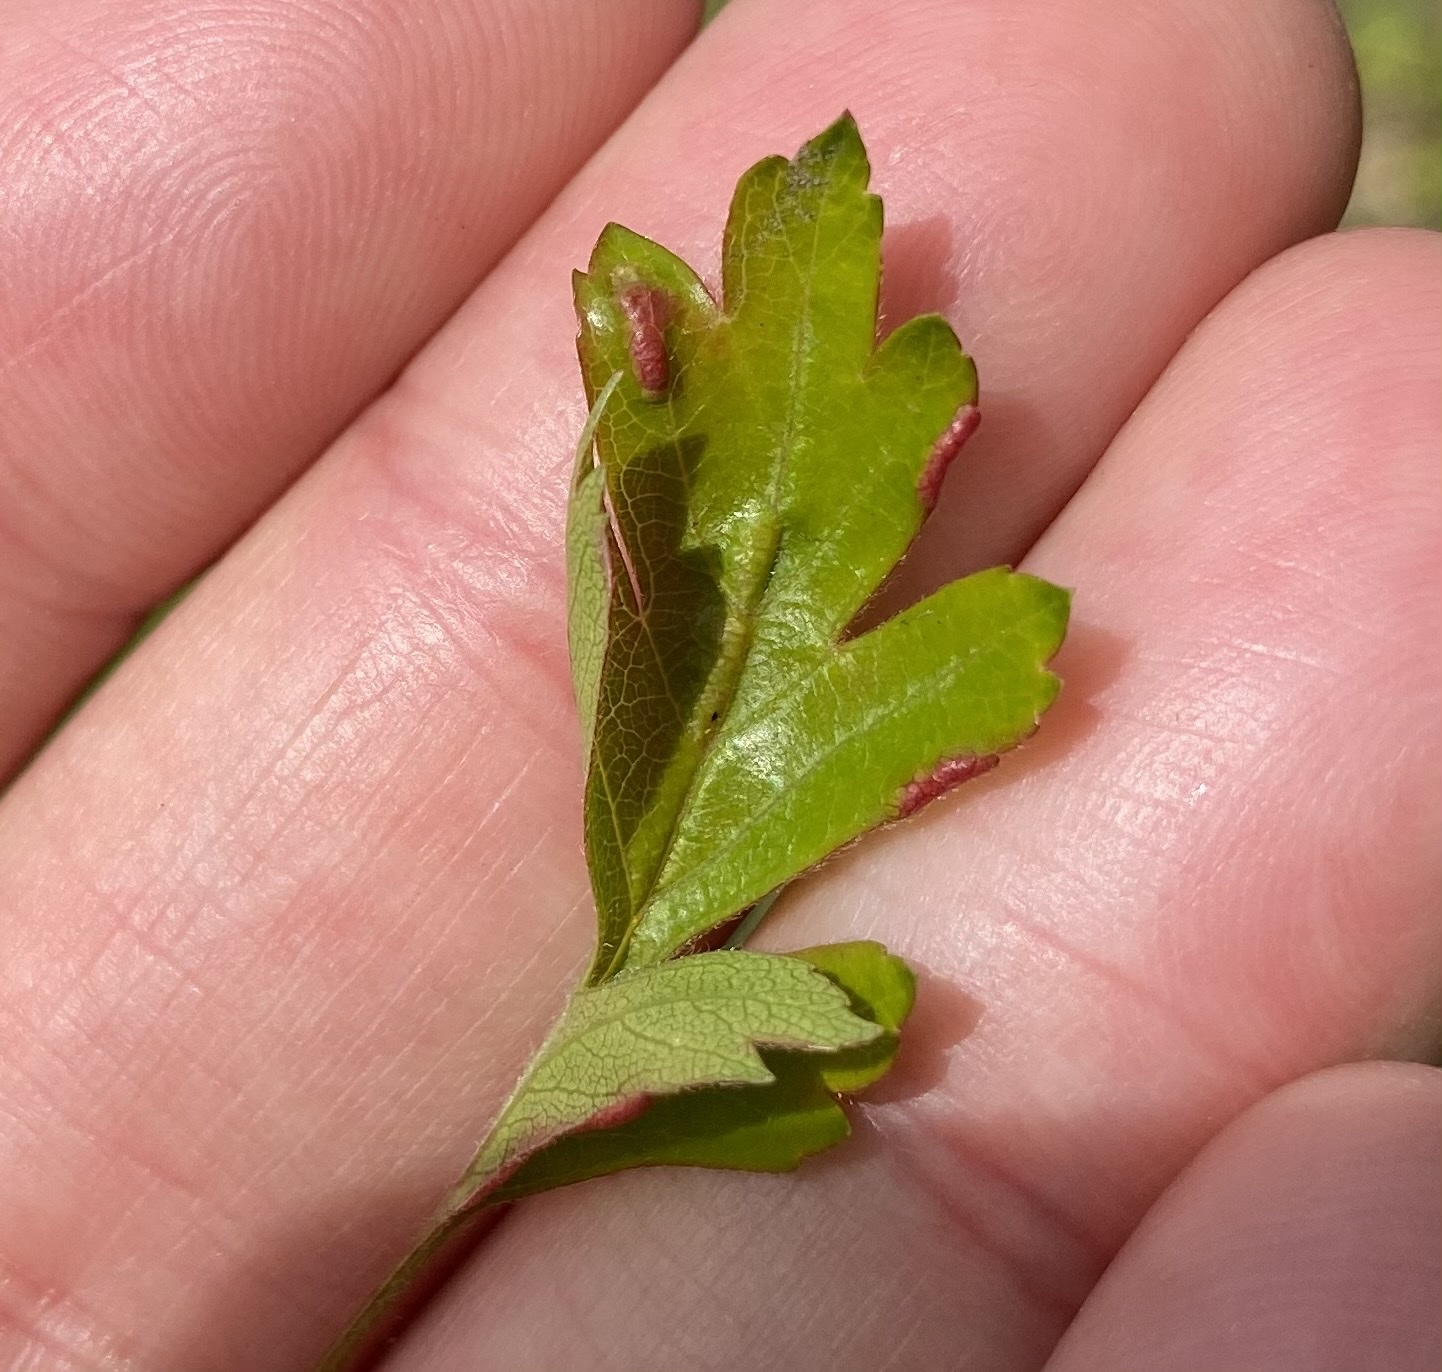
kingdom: Animalia
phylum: Arthropoda
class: Arachnida
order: Trombidiformes
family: Eriophyidae
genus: Phyllocoptes
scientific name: Phyllocoptes goniothorax
